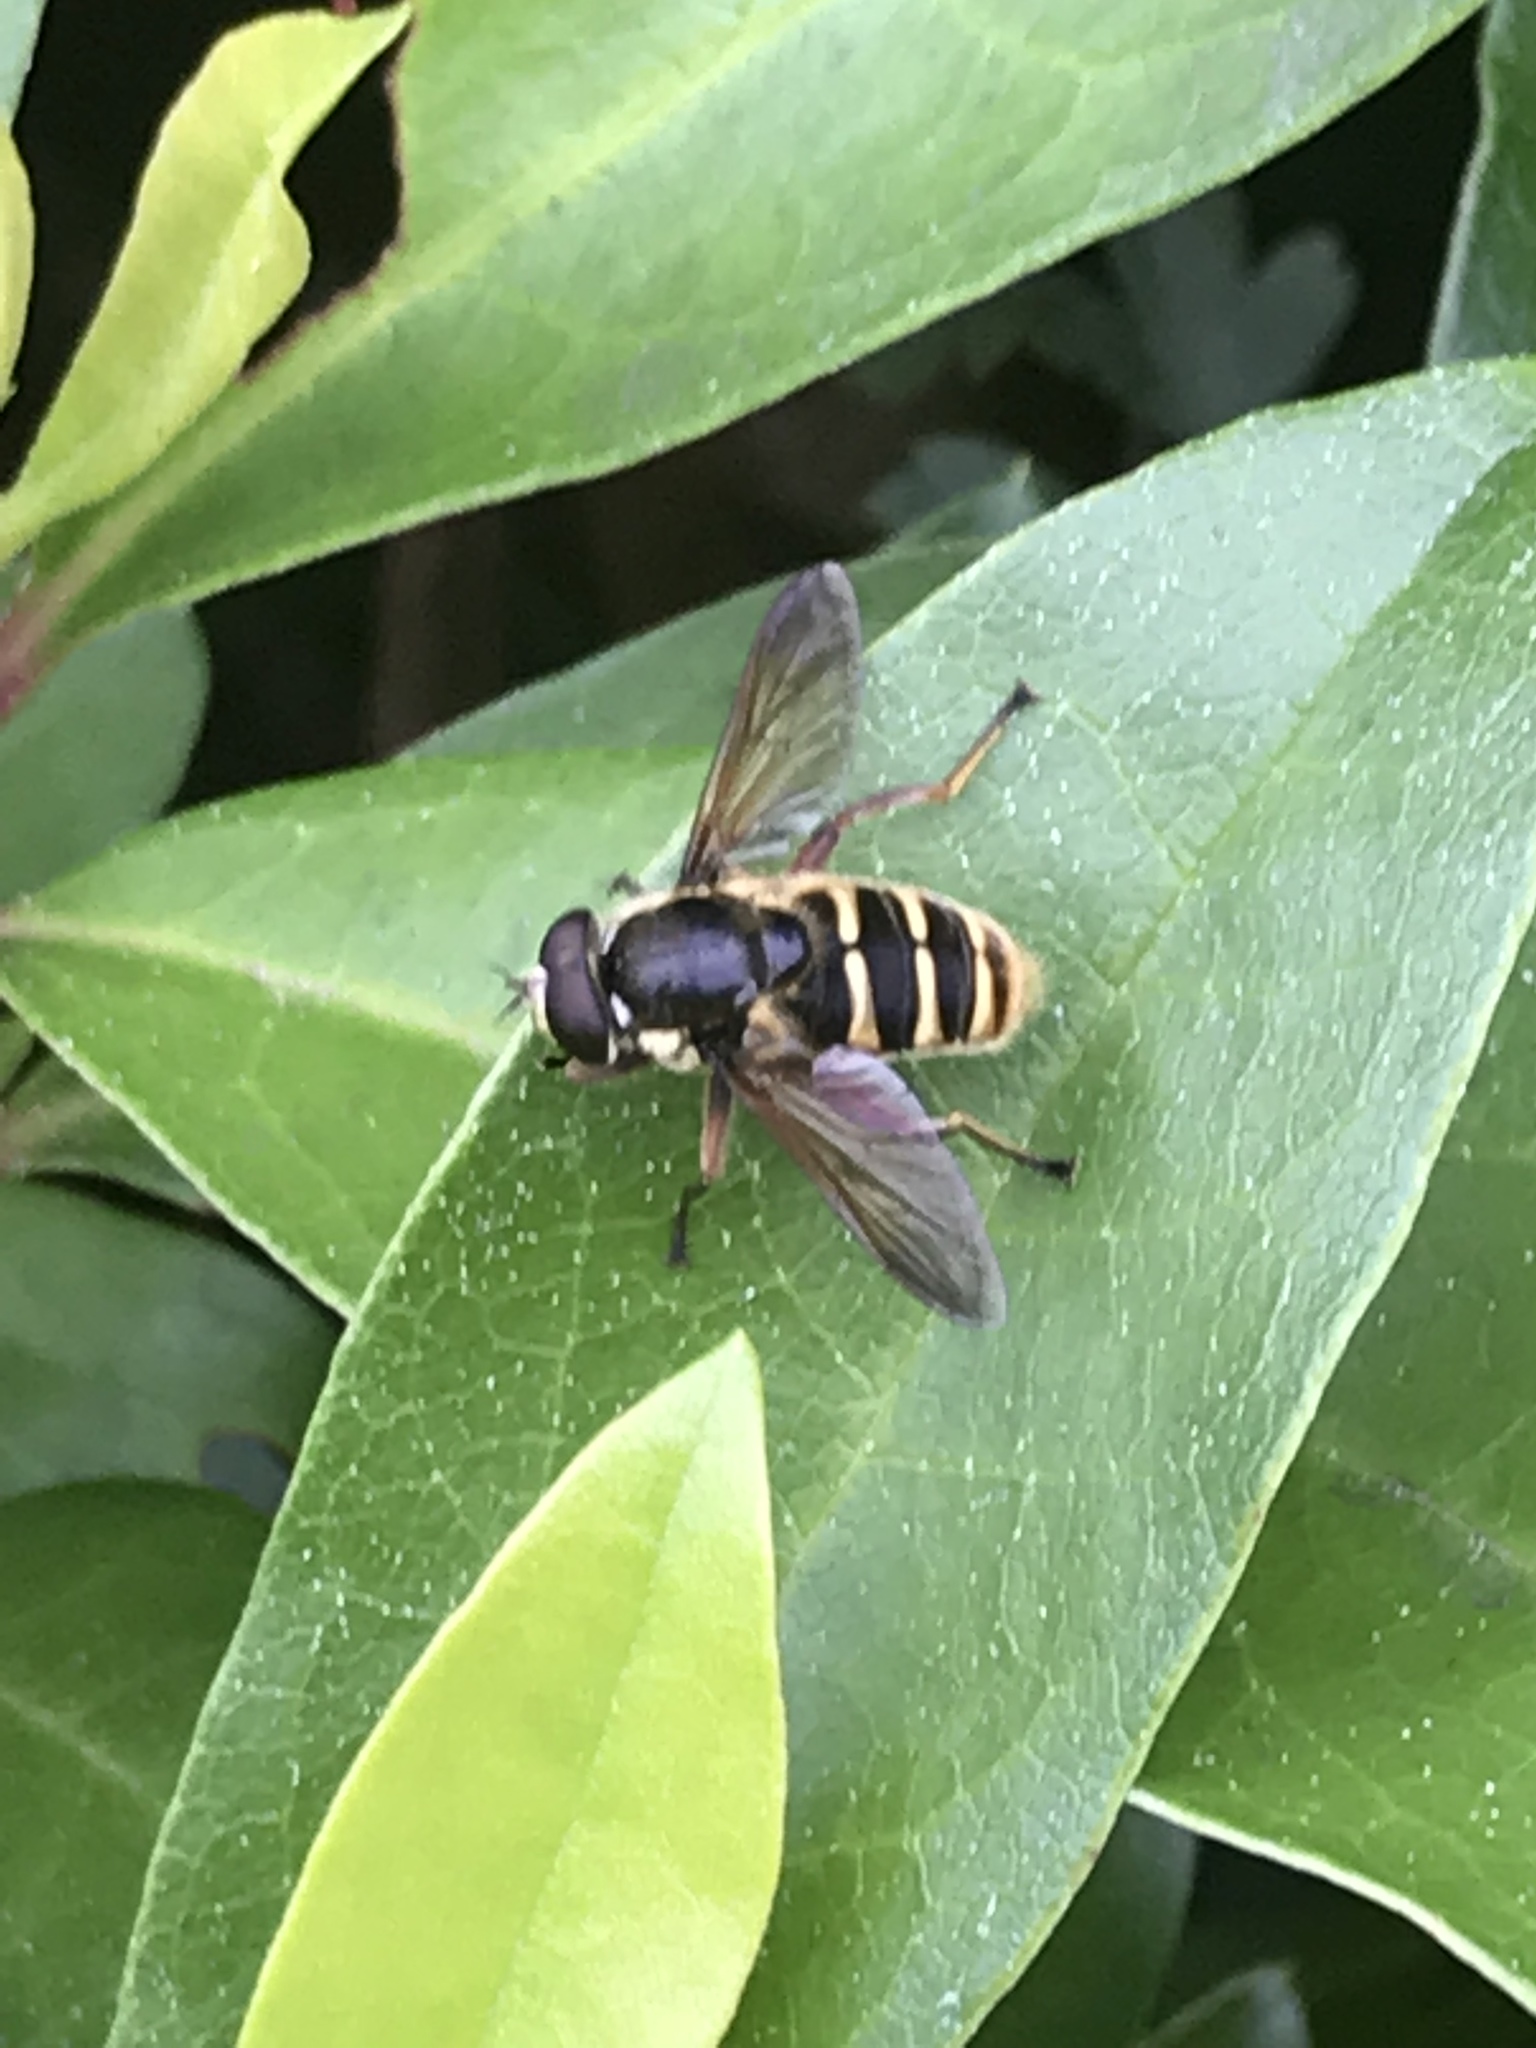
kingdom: Animalia
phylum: Arthropoda
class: Insecta
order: Diptera
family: Syrphidae
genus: Sericomyia
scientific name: Sericomyia silentis
